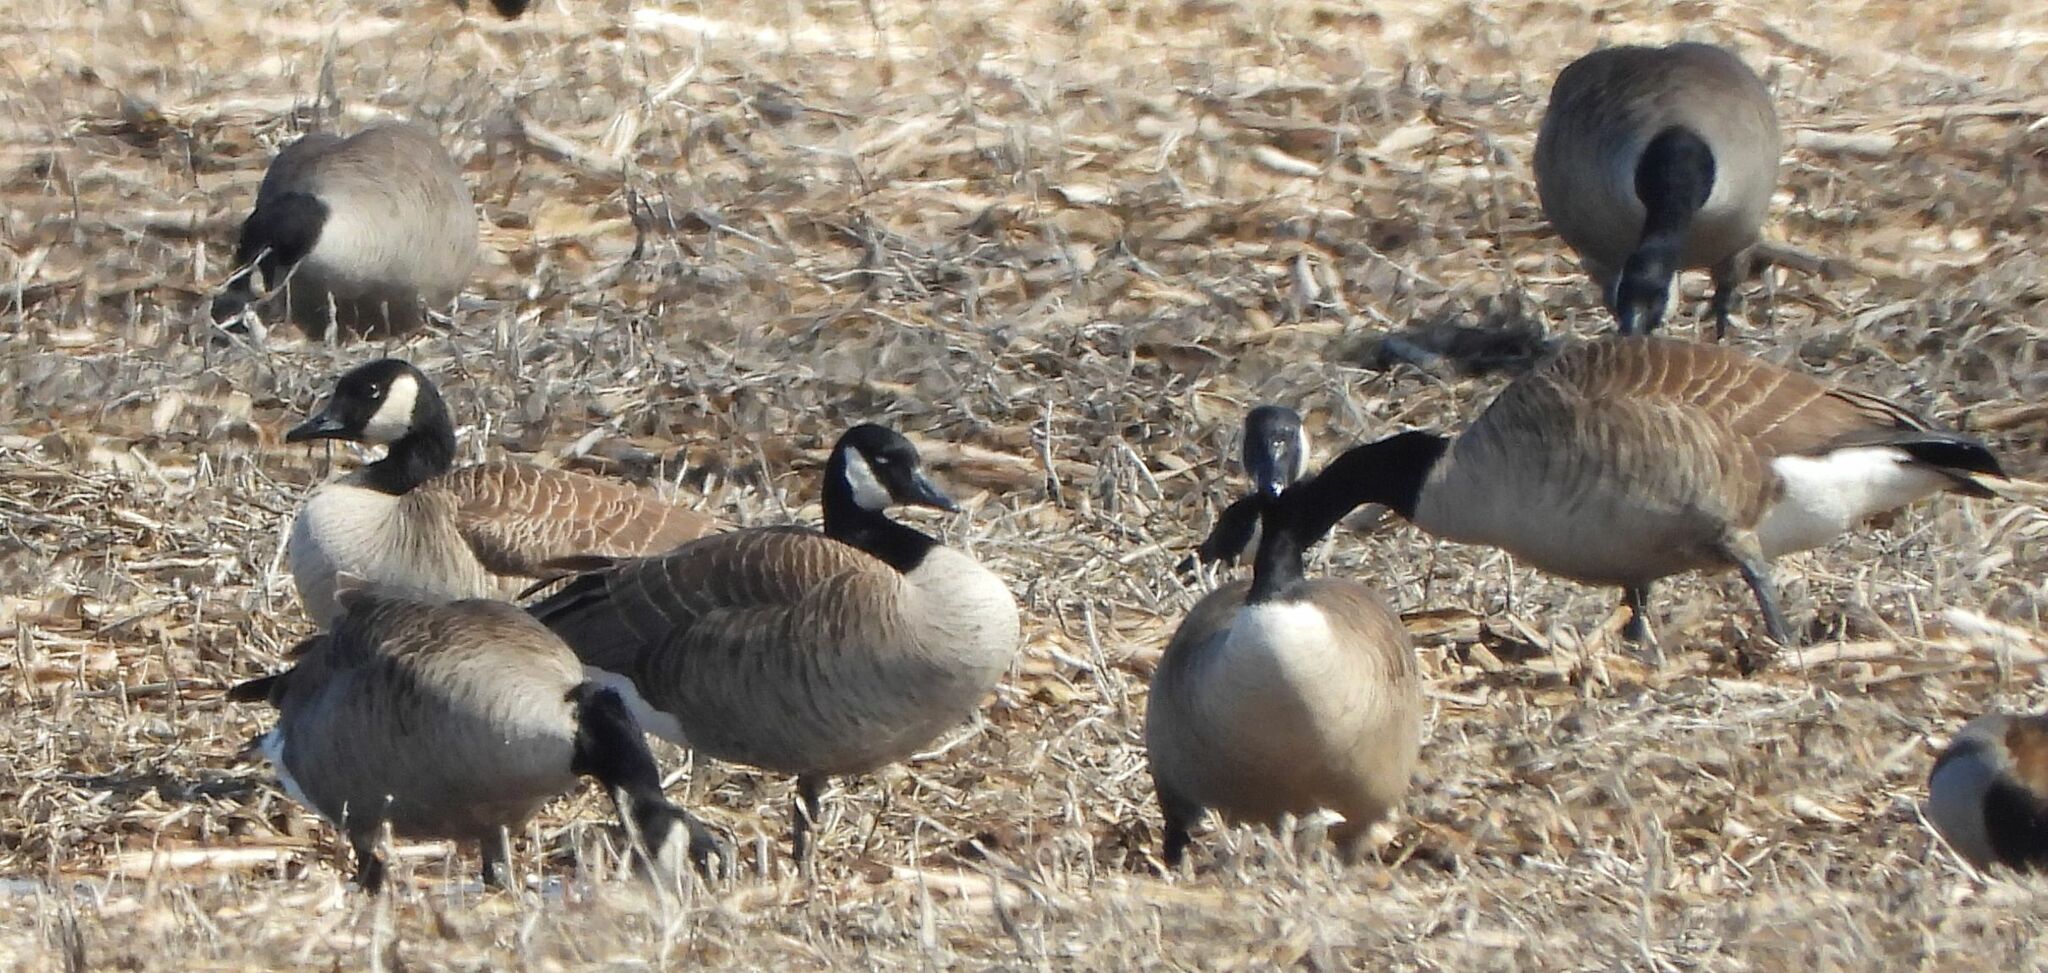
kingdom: Animalia
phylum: Chordata
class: Aves
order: Anseriformes
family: Anatidae
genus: Branta
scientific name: Branta canadensis
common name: Canada goose
